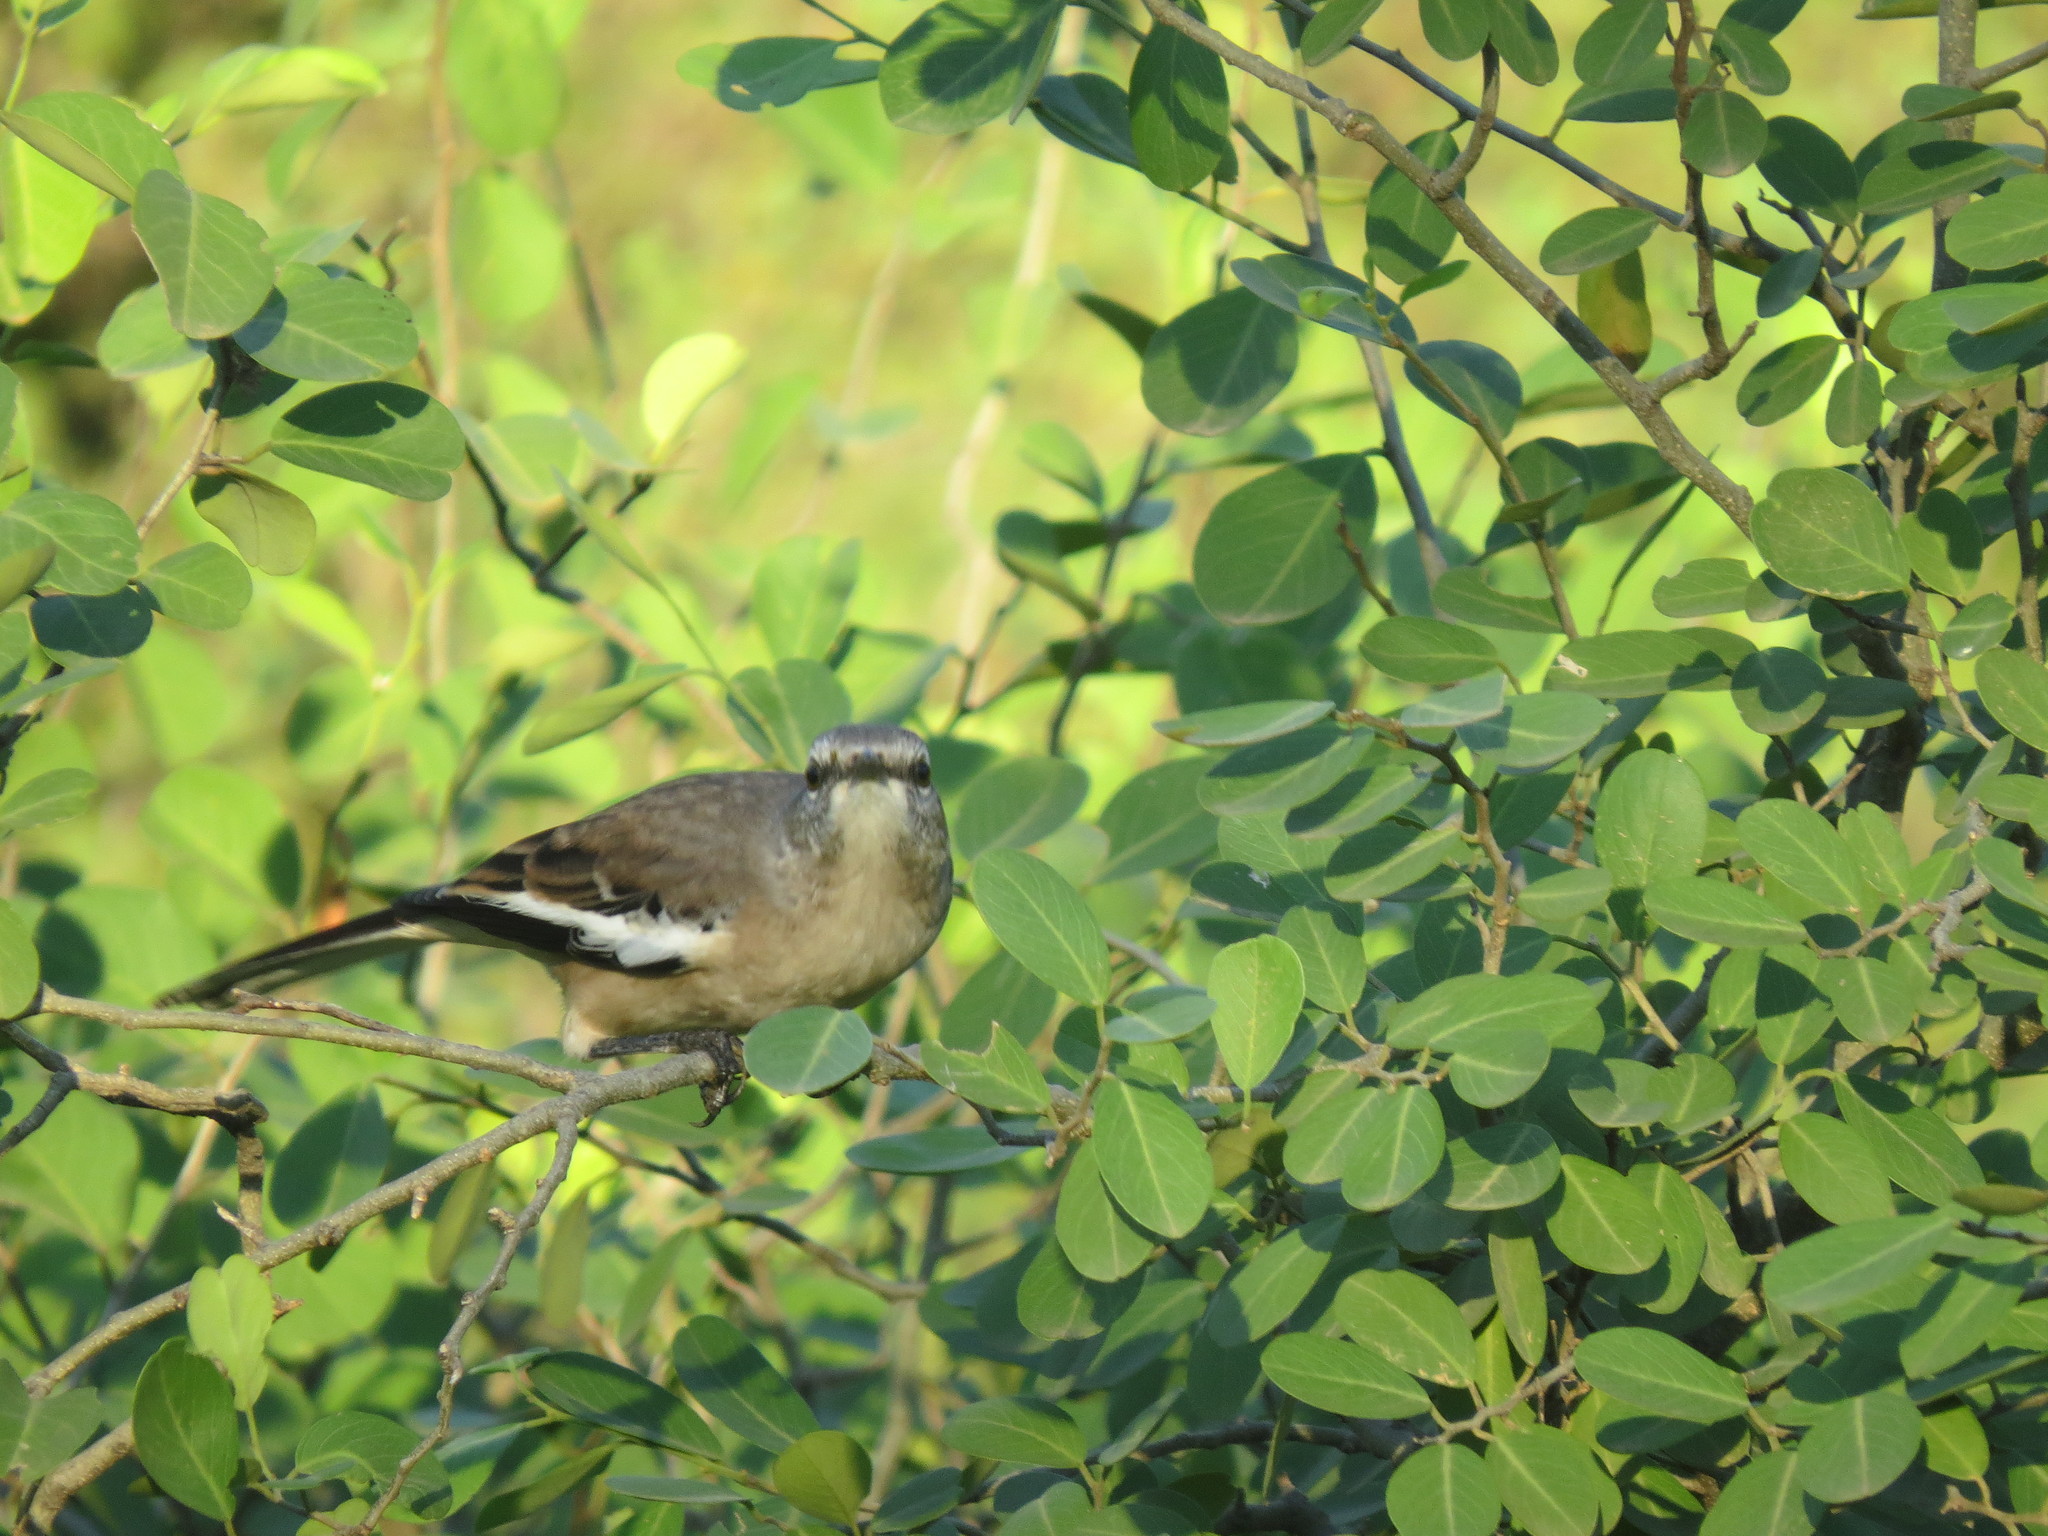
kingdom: Animalia
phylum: Chordata
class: Aves
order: Passeriformes
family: Mimidae
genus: Mimus
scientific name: Mimus triurus
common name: White-banded mockingbird
